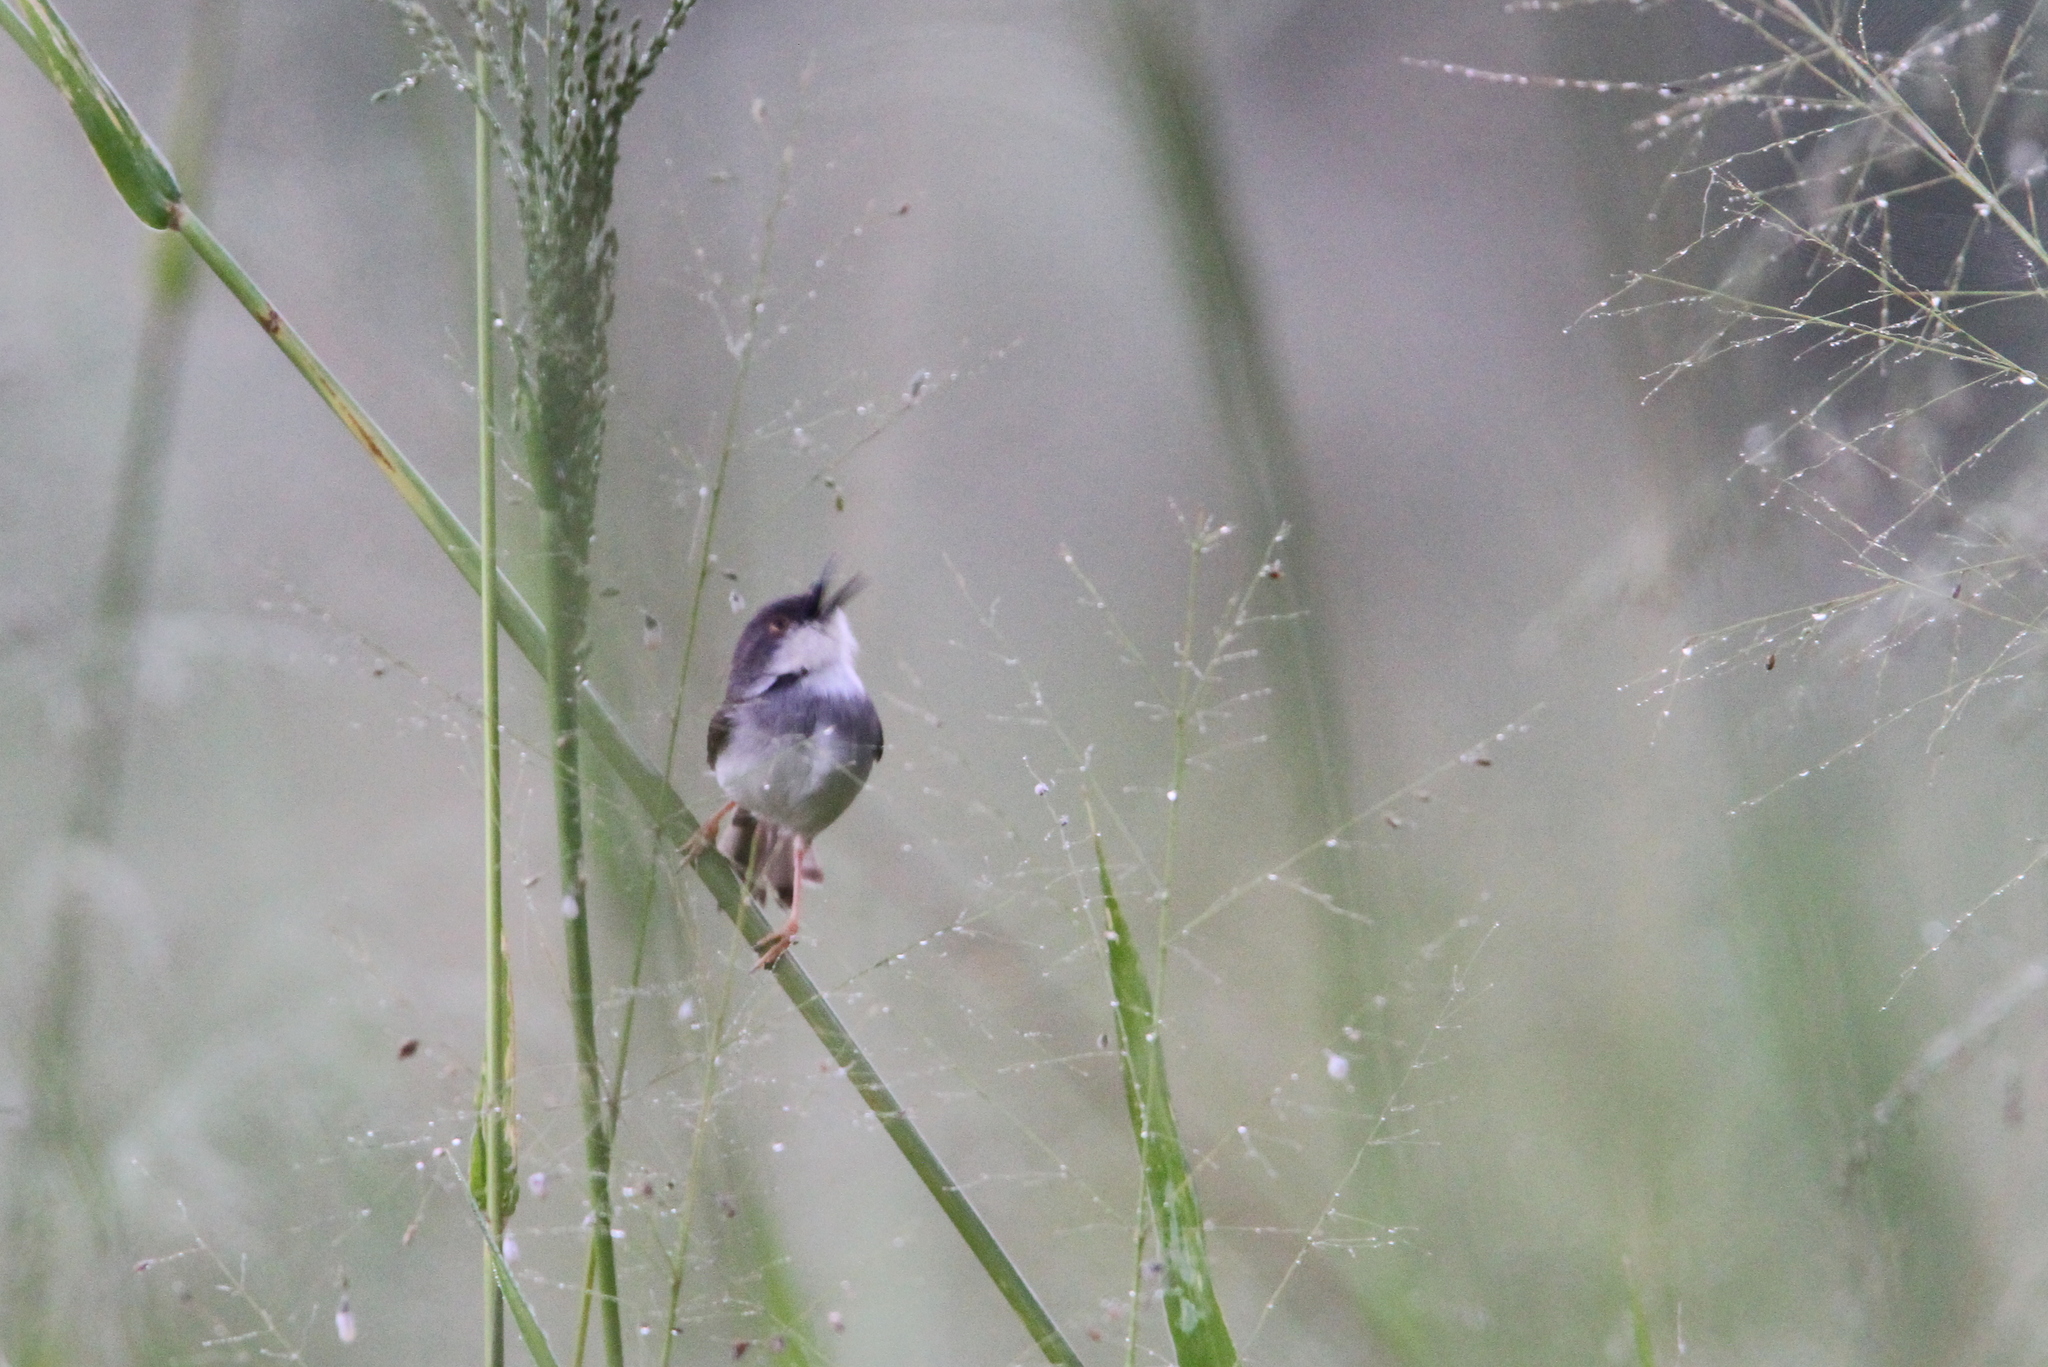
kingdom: Animalia
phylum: Chordata
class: Aves
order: Passeriformes
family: Cisticolidae
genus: Prinia
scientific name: Prinia hodgsonii
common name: Grey-breasted prinia
